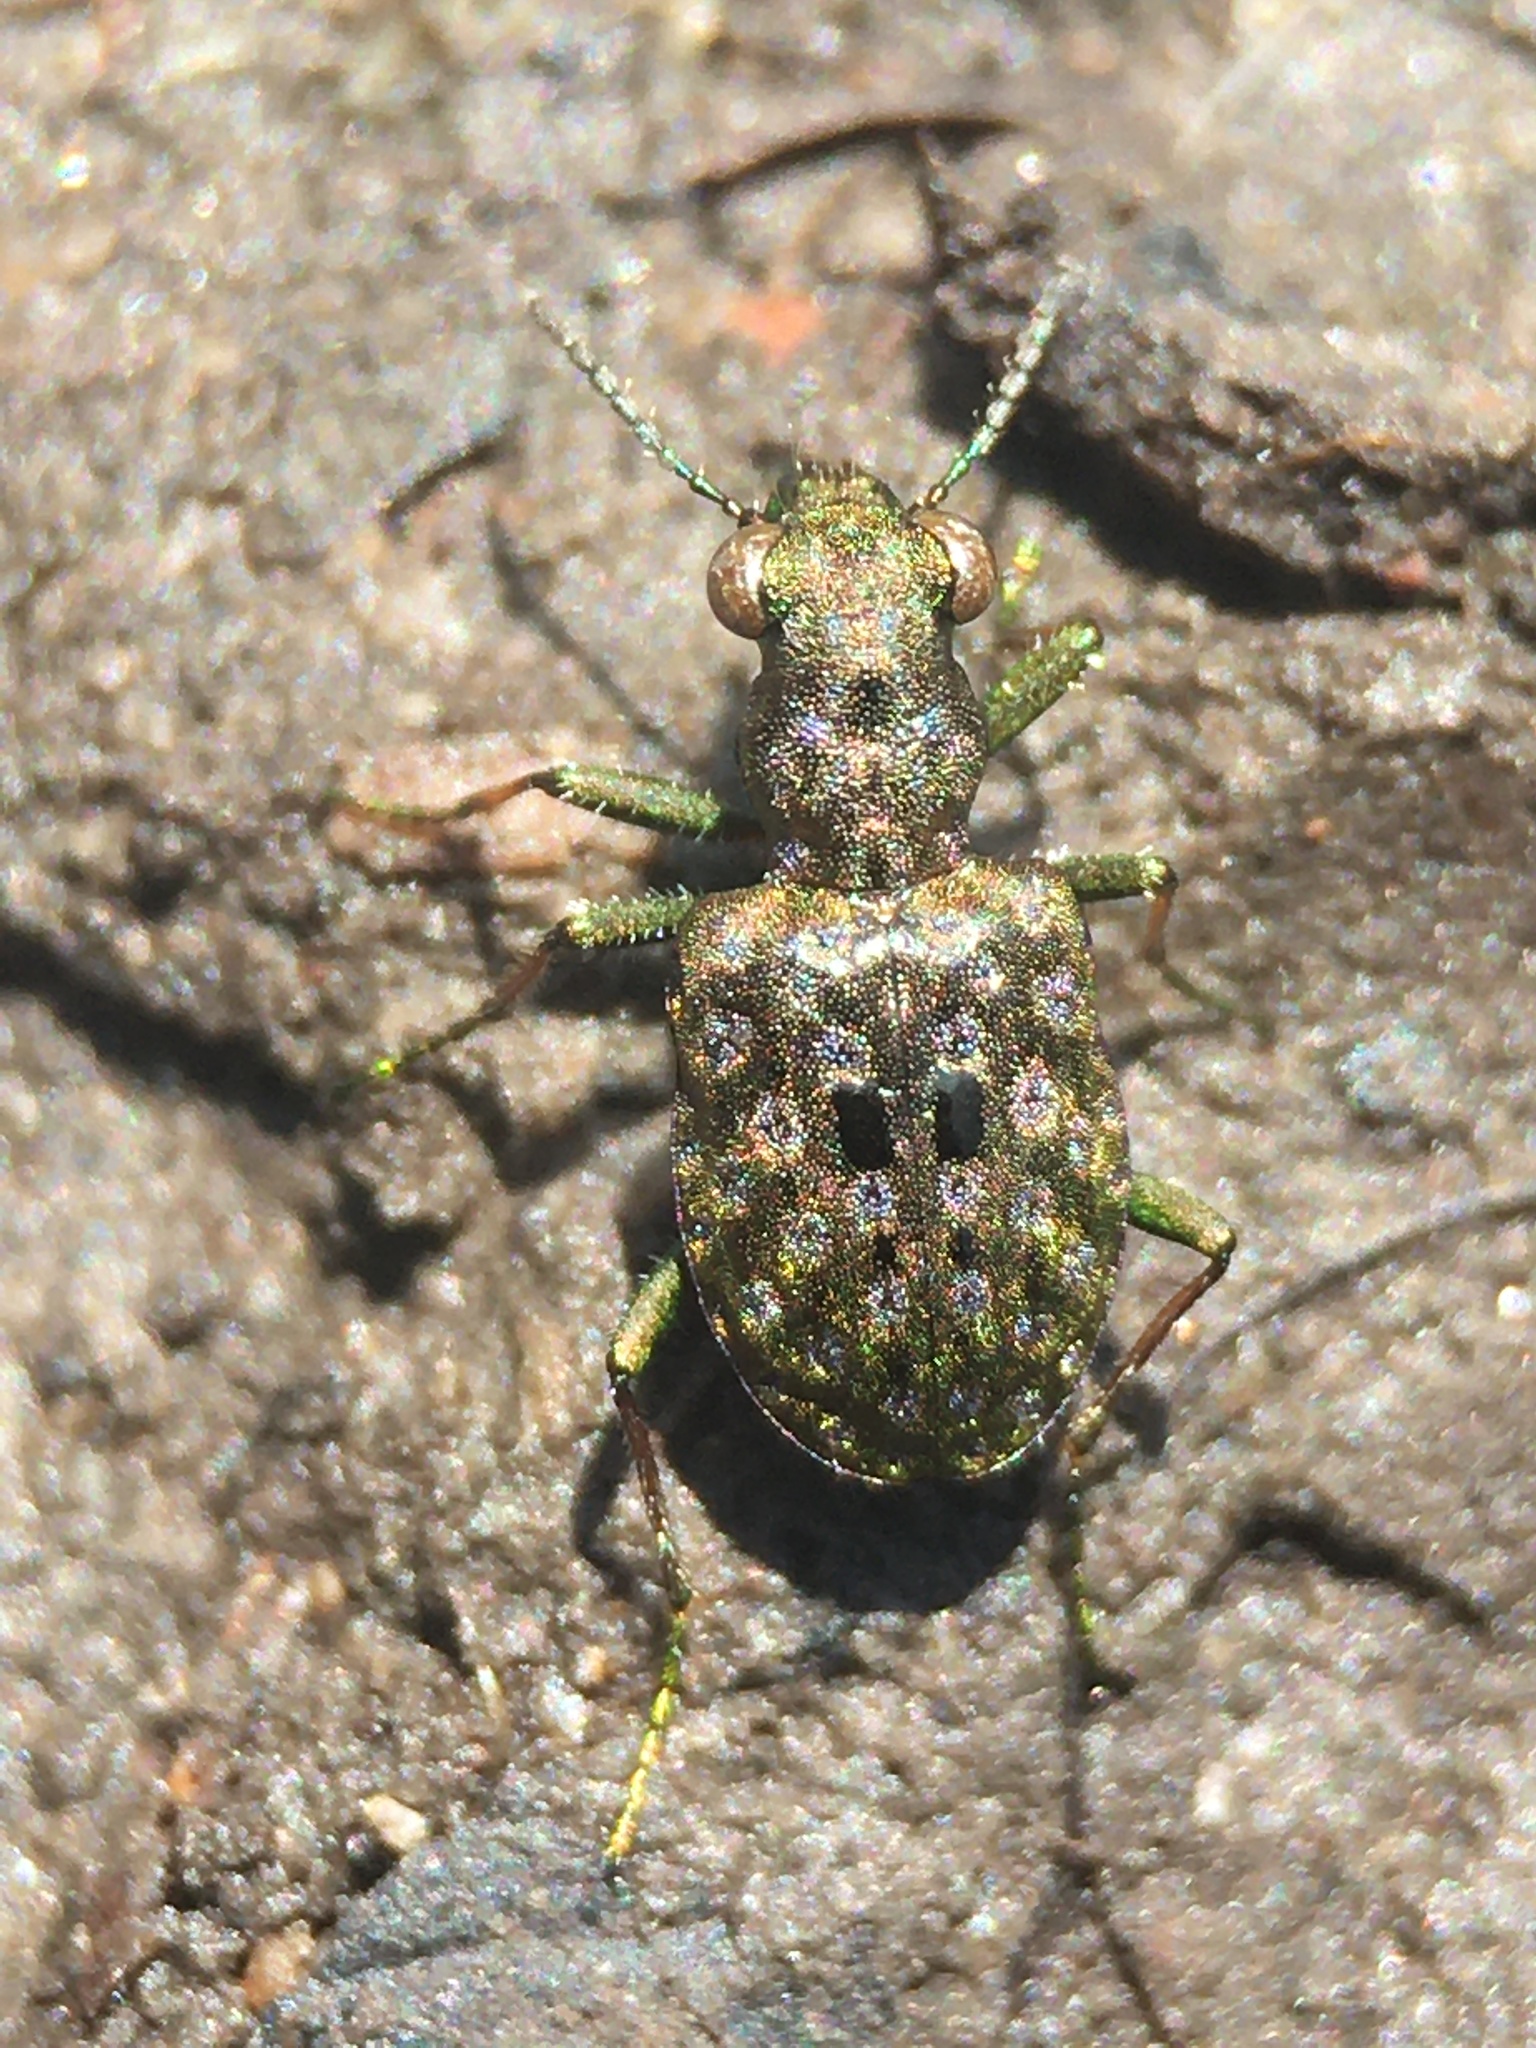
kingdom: Animalia
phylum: Arthropoda
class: Insecta
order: Coleoptera
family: Carabidae
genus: Elaphrus
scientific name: Elaphrus ruscarius
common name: Shore ground beetle
